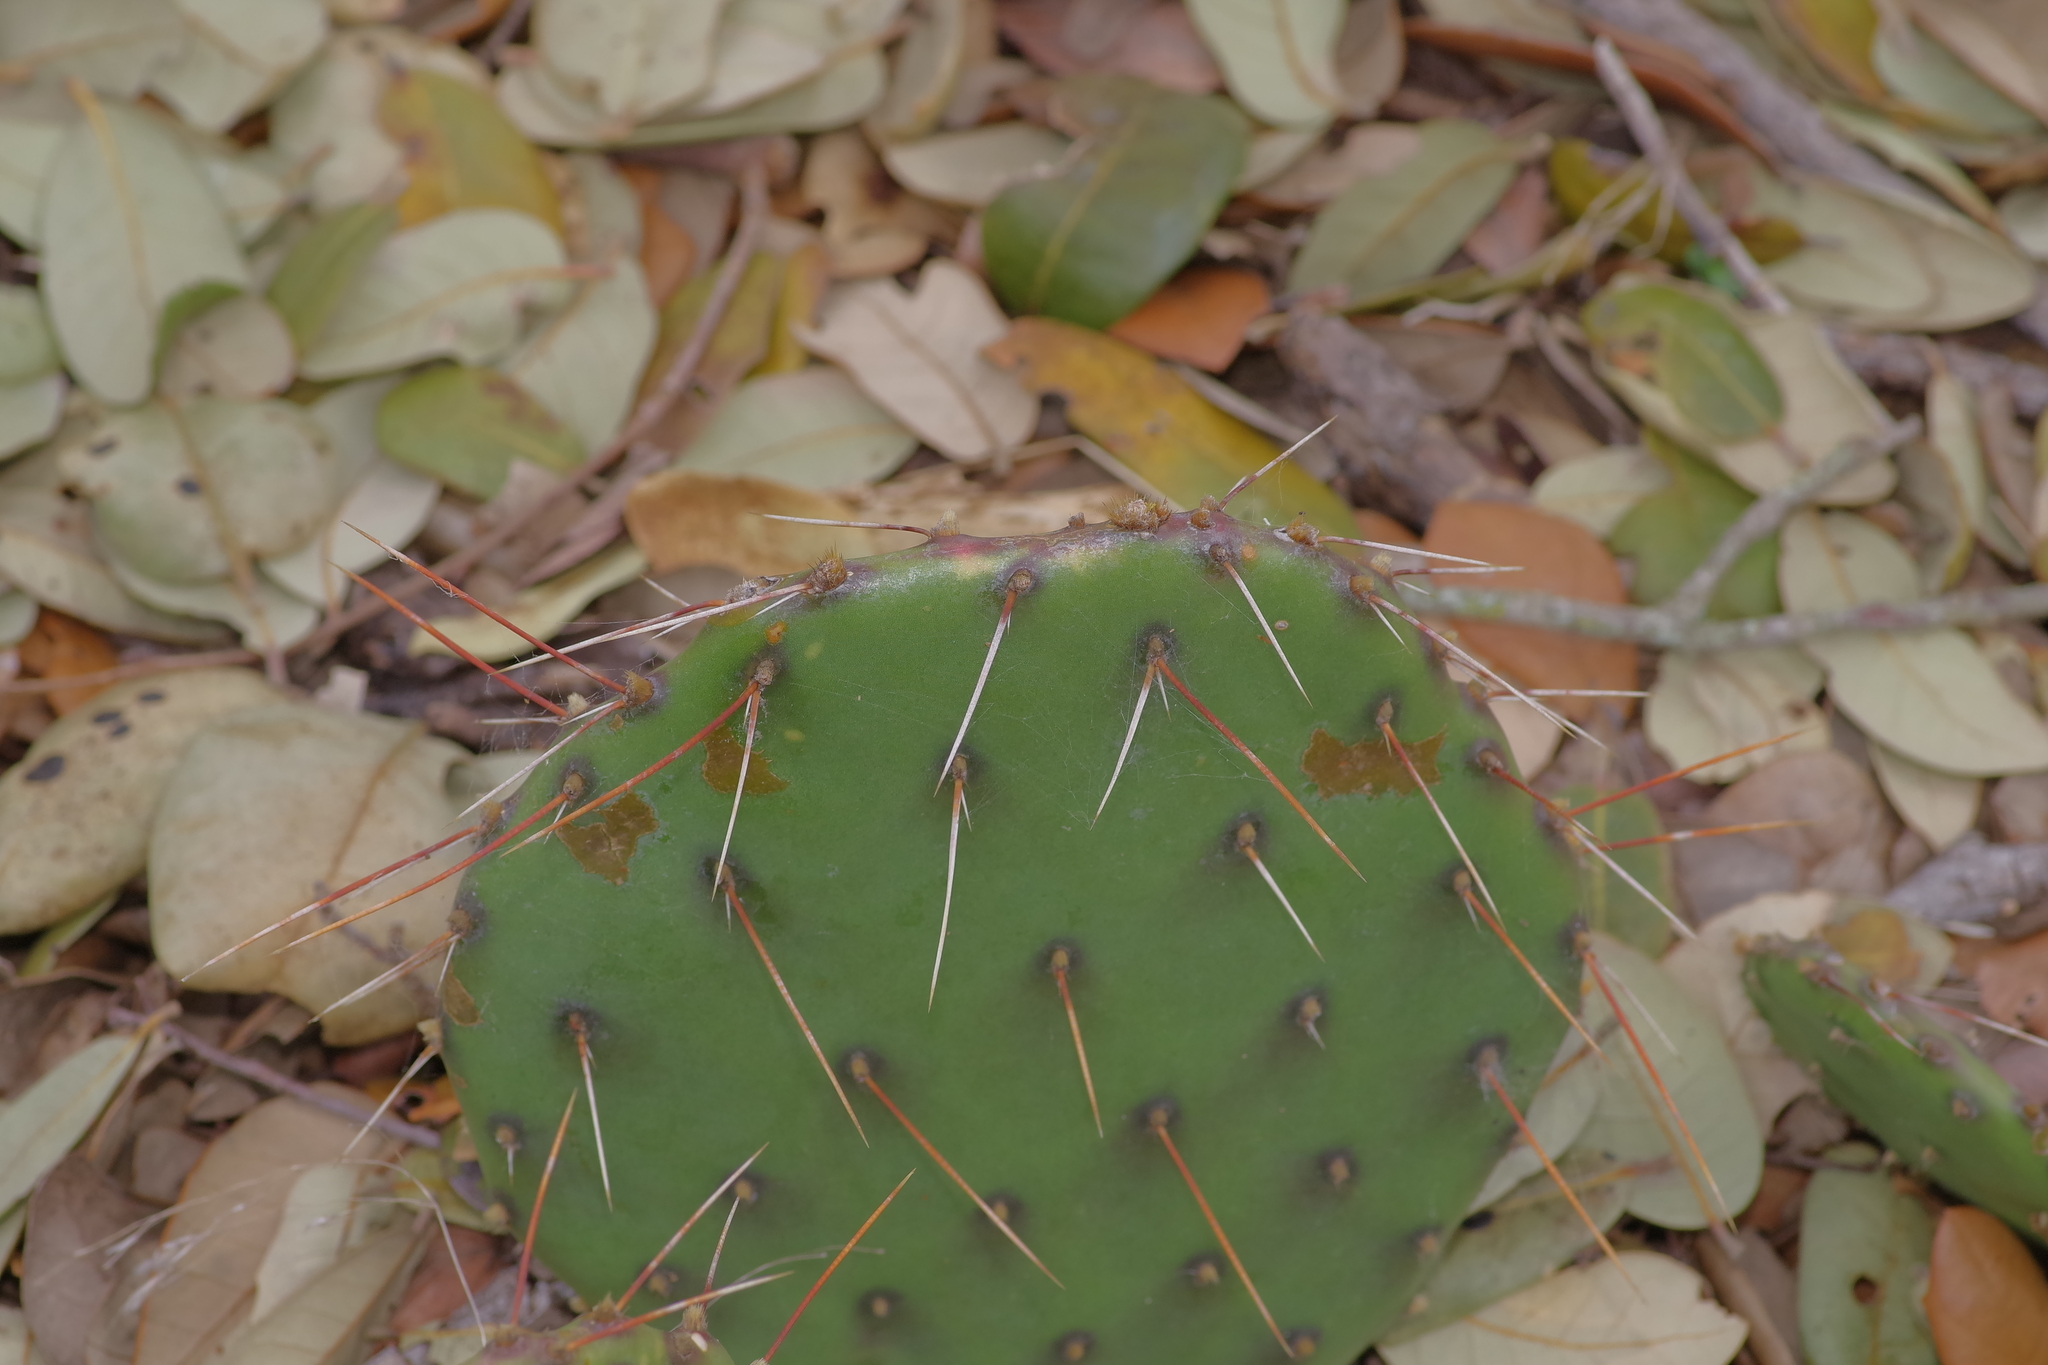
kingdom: Plantae
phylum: Tracheophyta
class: Magnoliopsida
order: Caryophyllales
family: Cactaceae
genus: Opuntia
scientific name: Opuntia phaeacantha
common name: New mexico prickly-pear
